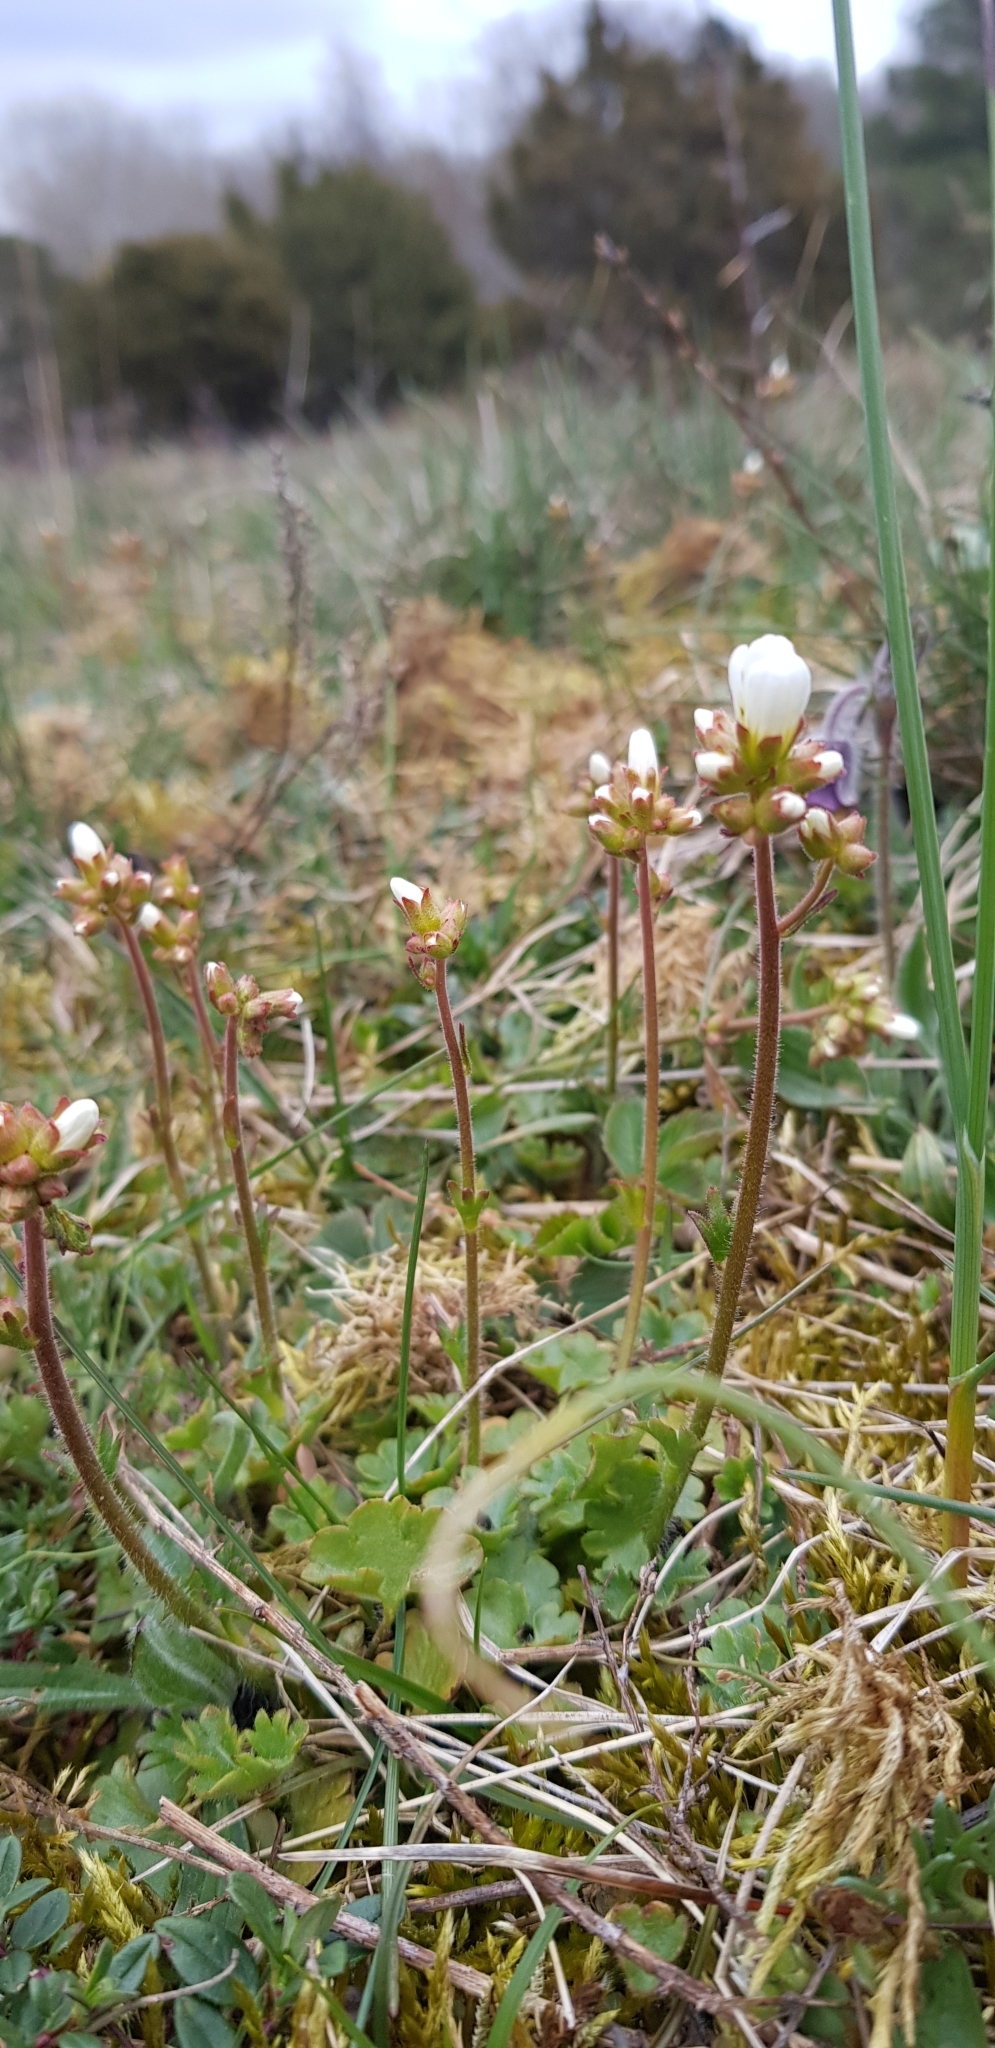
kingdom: Plantae
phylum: Tracheophyta
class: Magnoliopsida
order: Saxifragales
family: Saxifragaceae
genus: Saxifraga
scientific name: Saxifraga granulata
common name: Meadow saxifrage
